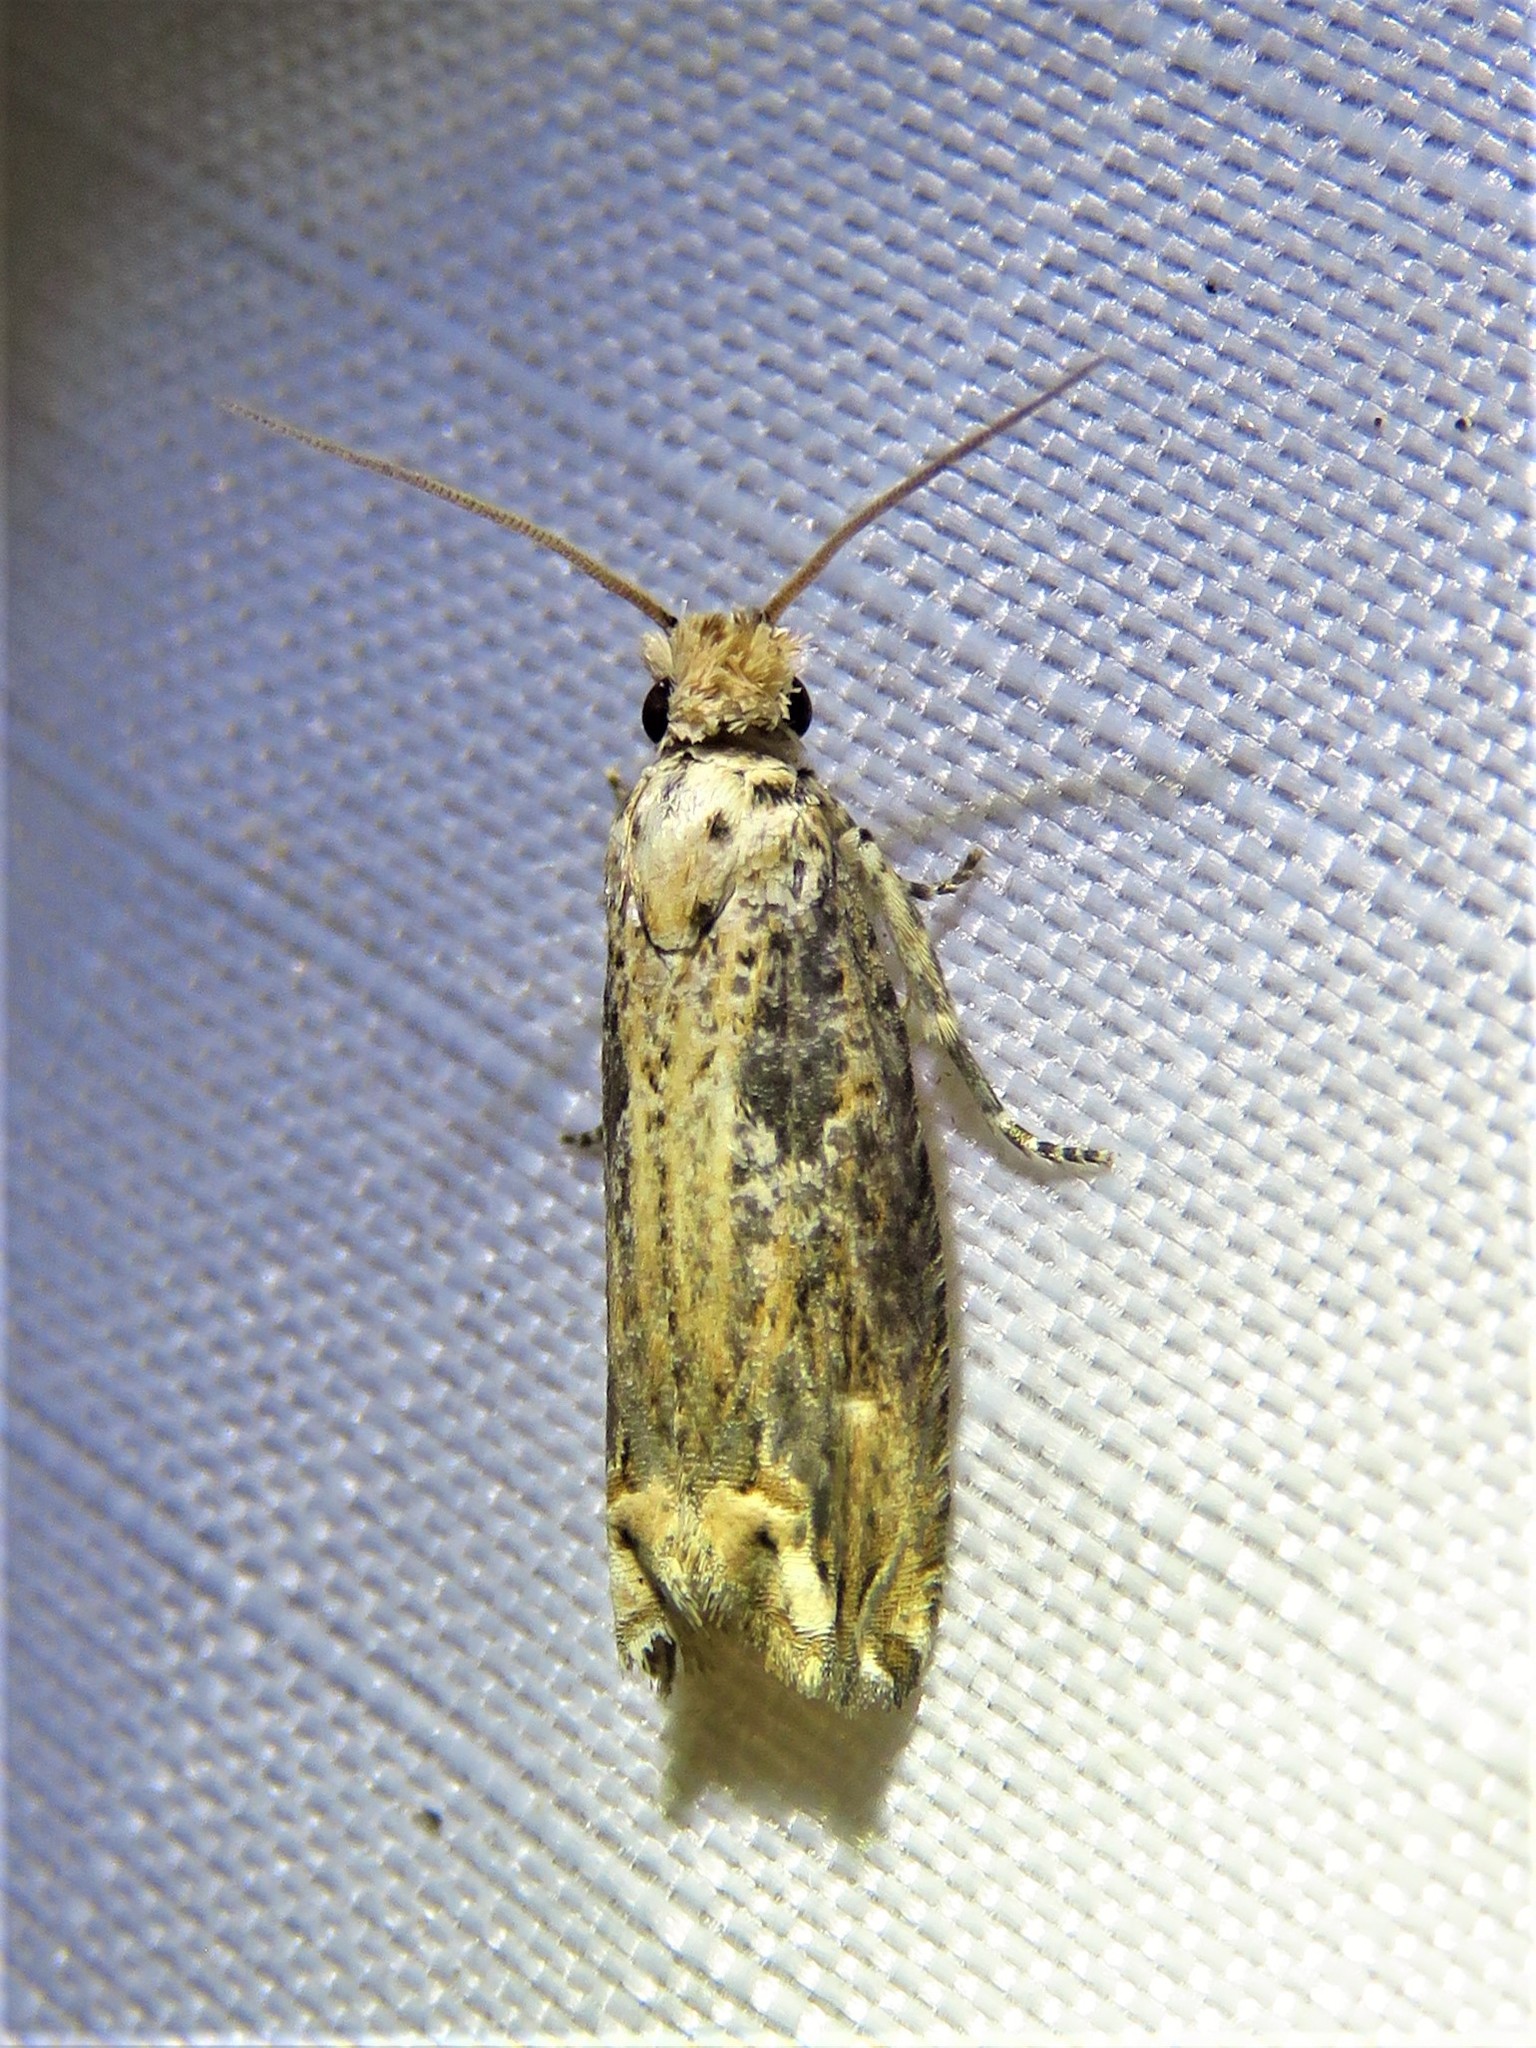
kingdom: Animalia
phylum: Arthropoda
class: Insecta
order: Lepidoptera
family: Tortricidae
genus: Epiblema
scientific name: Epiblema chromata
